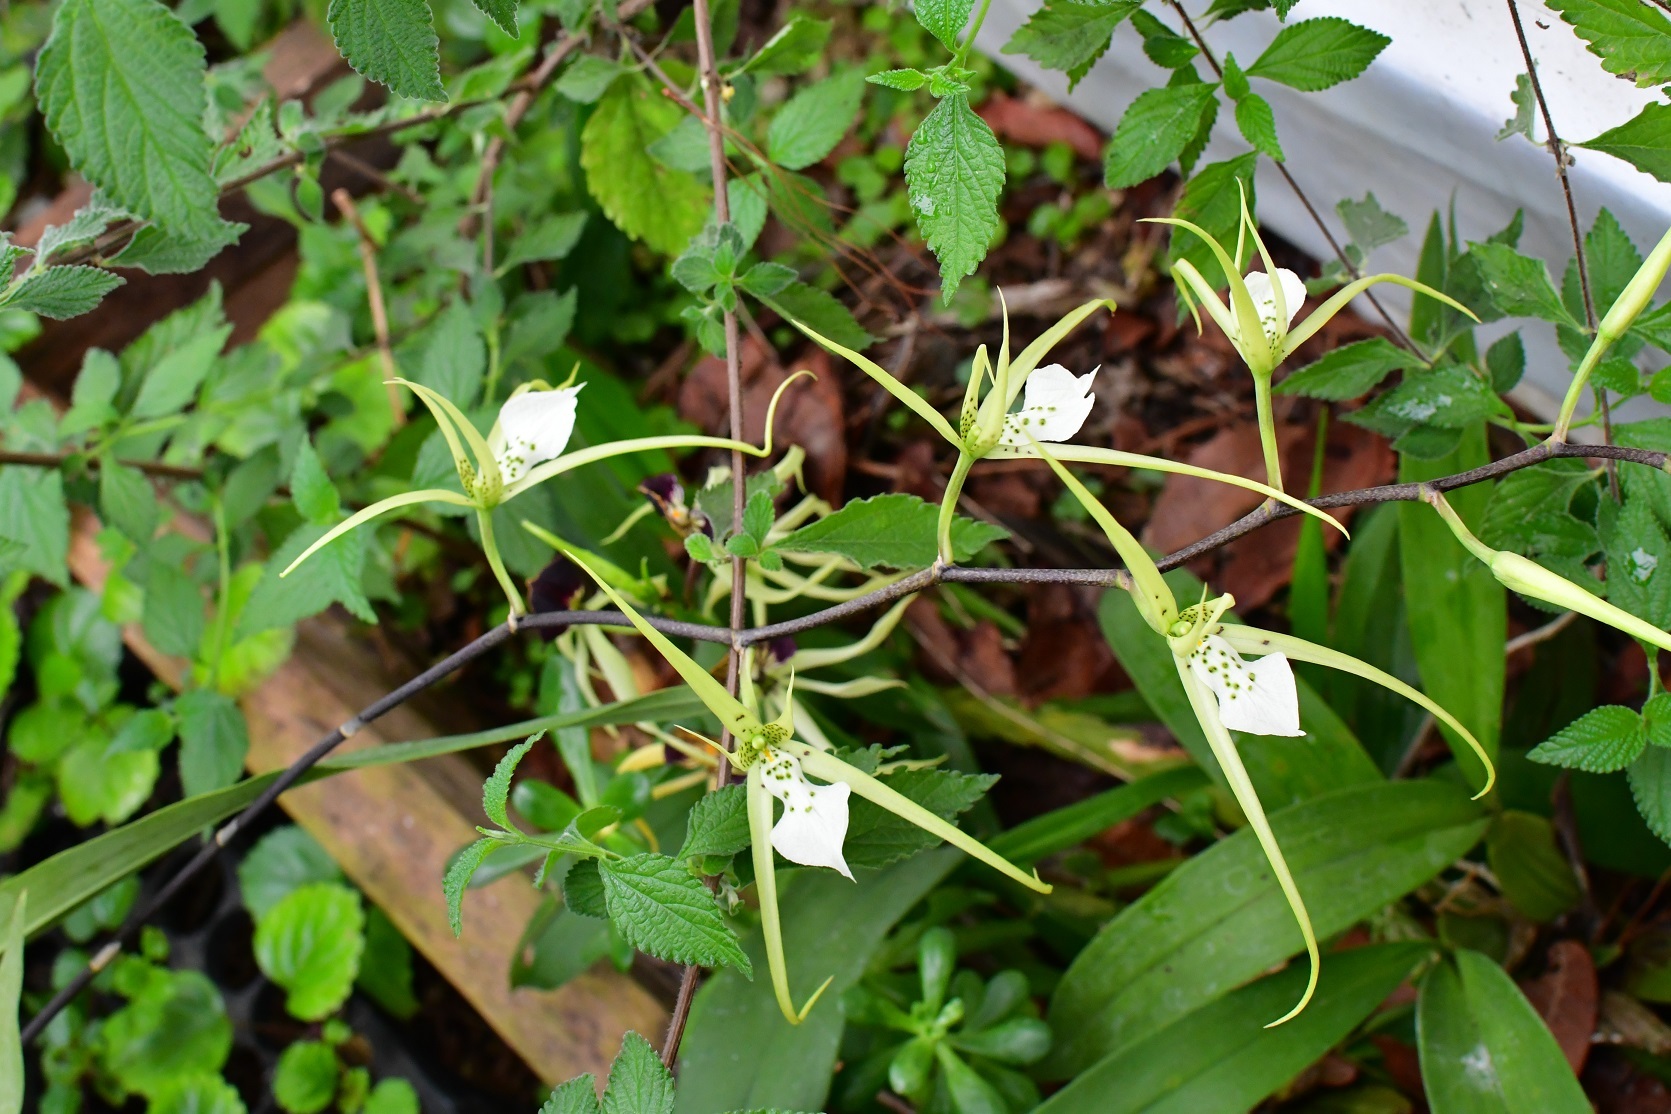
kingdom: Plantae
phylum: Tracheophyta
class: Liliopsida
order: Asparagales
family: Orchidaceae
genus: Brassia
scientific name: Brassia verrucosa
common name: Warty brassia
